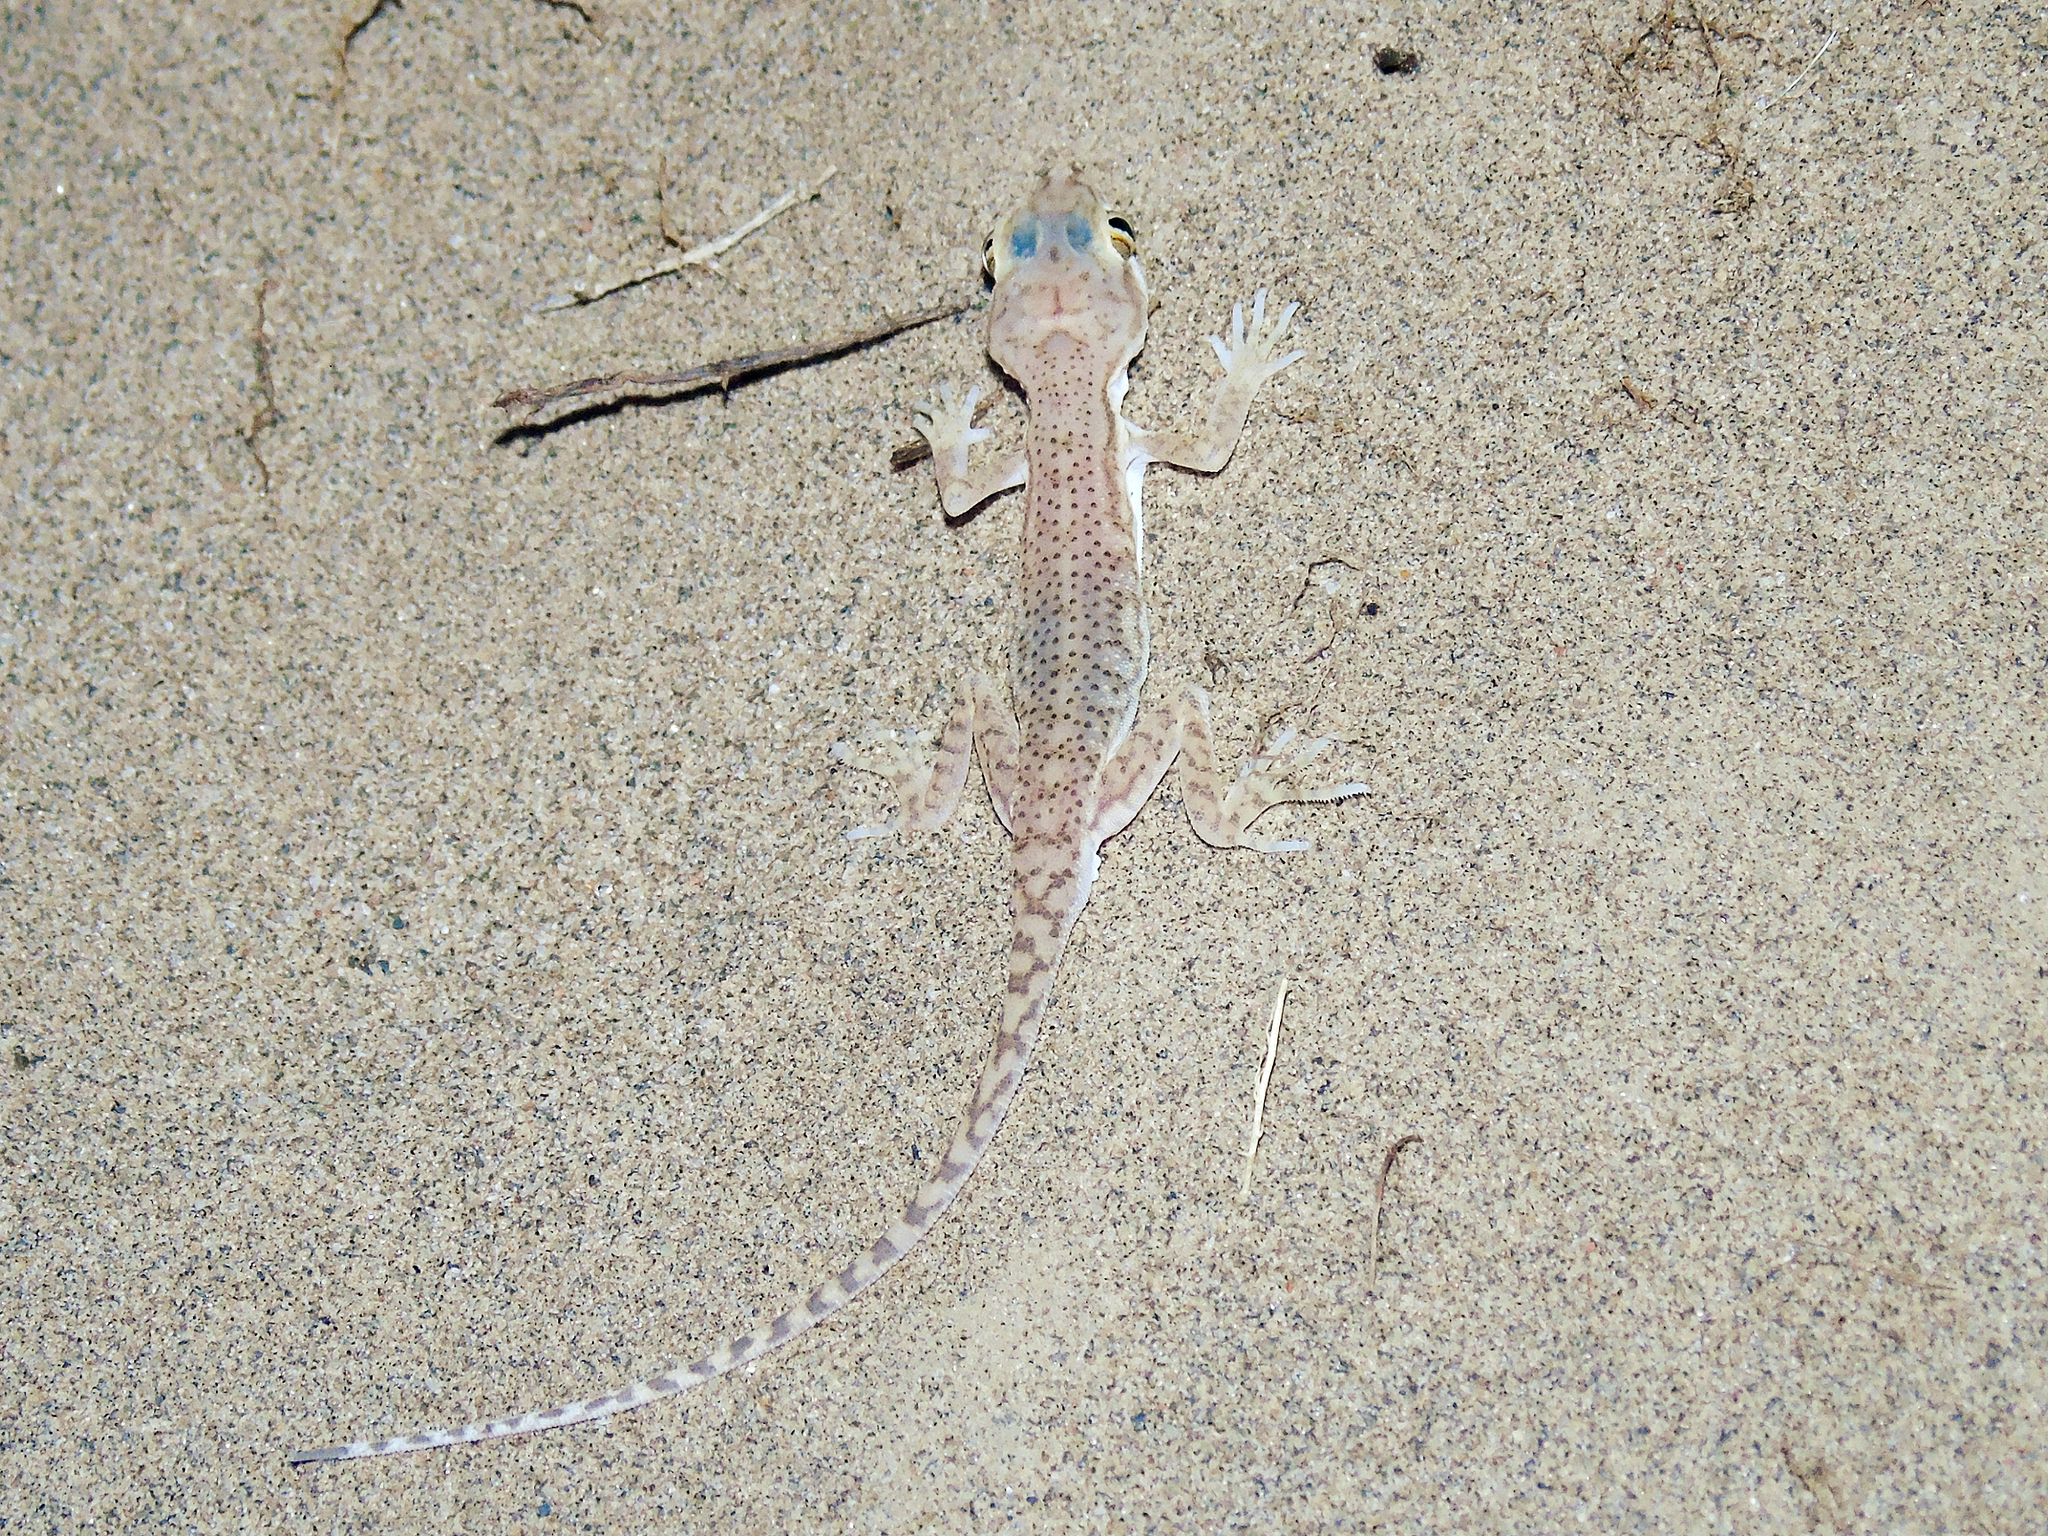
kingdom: Animalia
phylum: Chordata
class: Squamata
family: Gekkonidae
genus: Crossobamon
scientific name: Crossobamon eversmanni
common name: Comb-toed gecko
